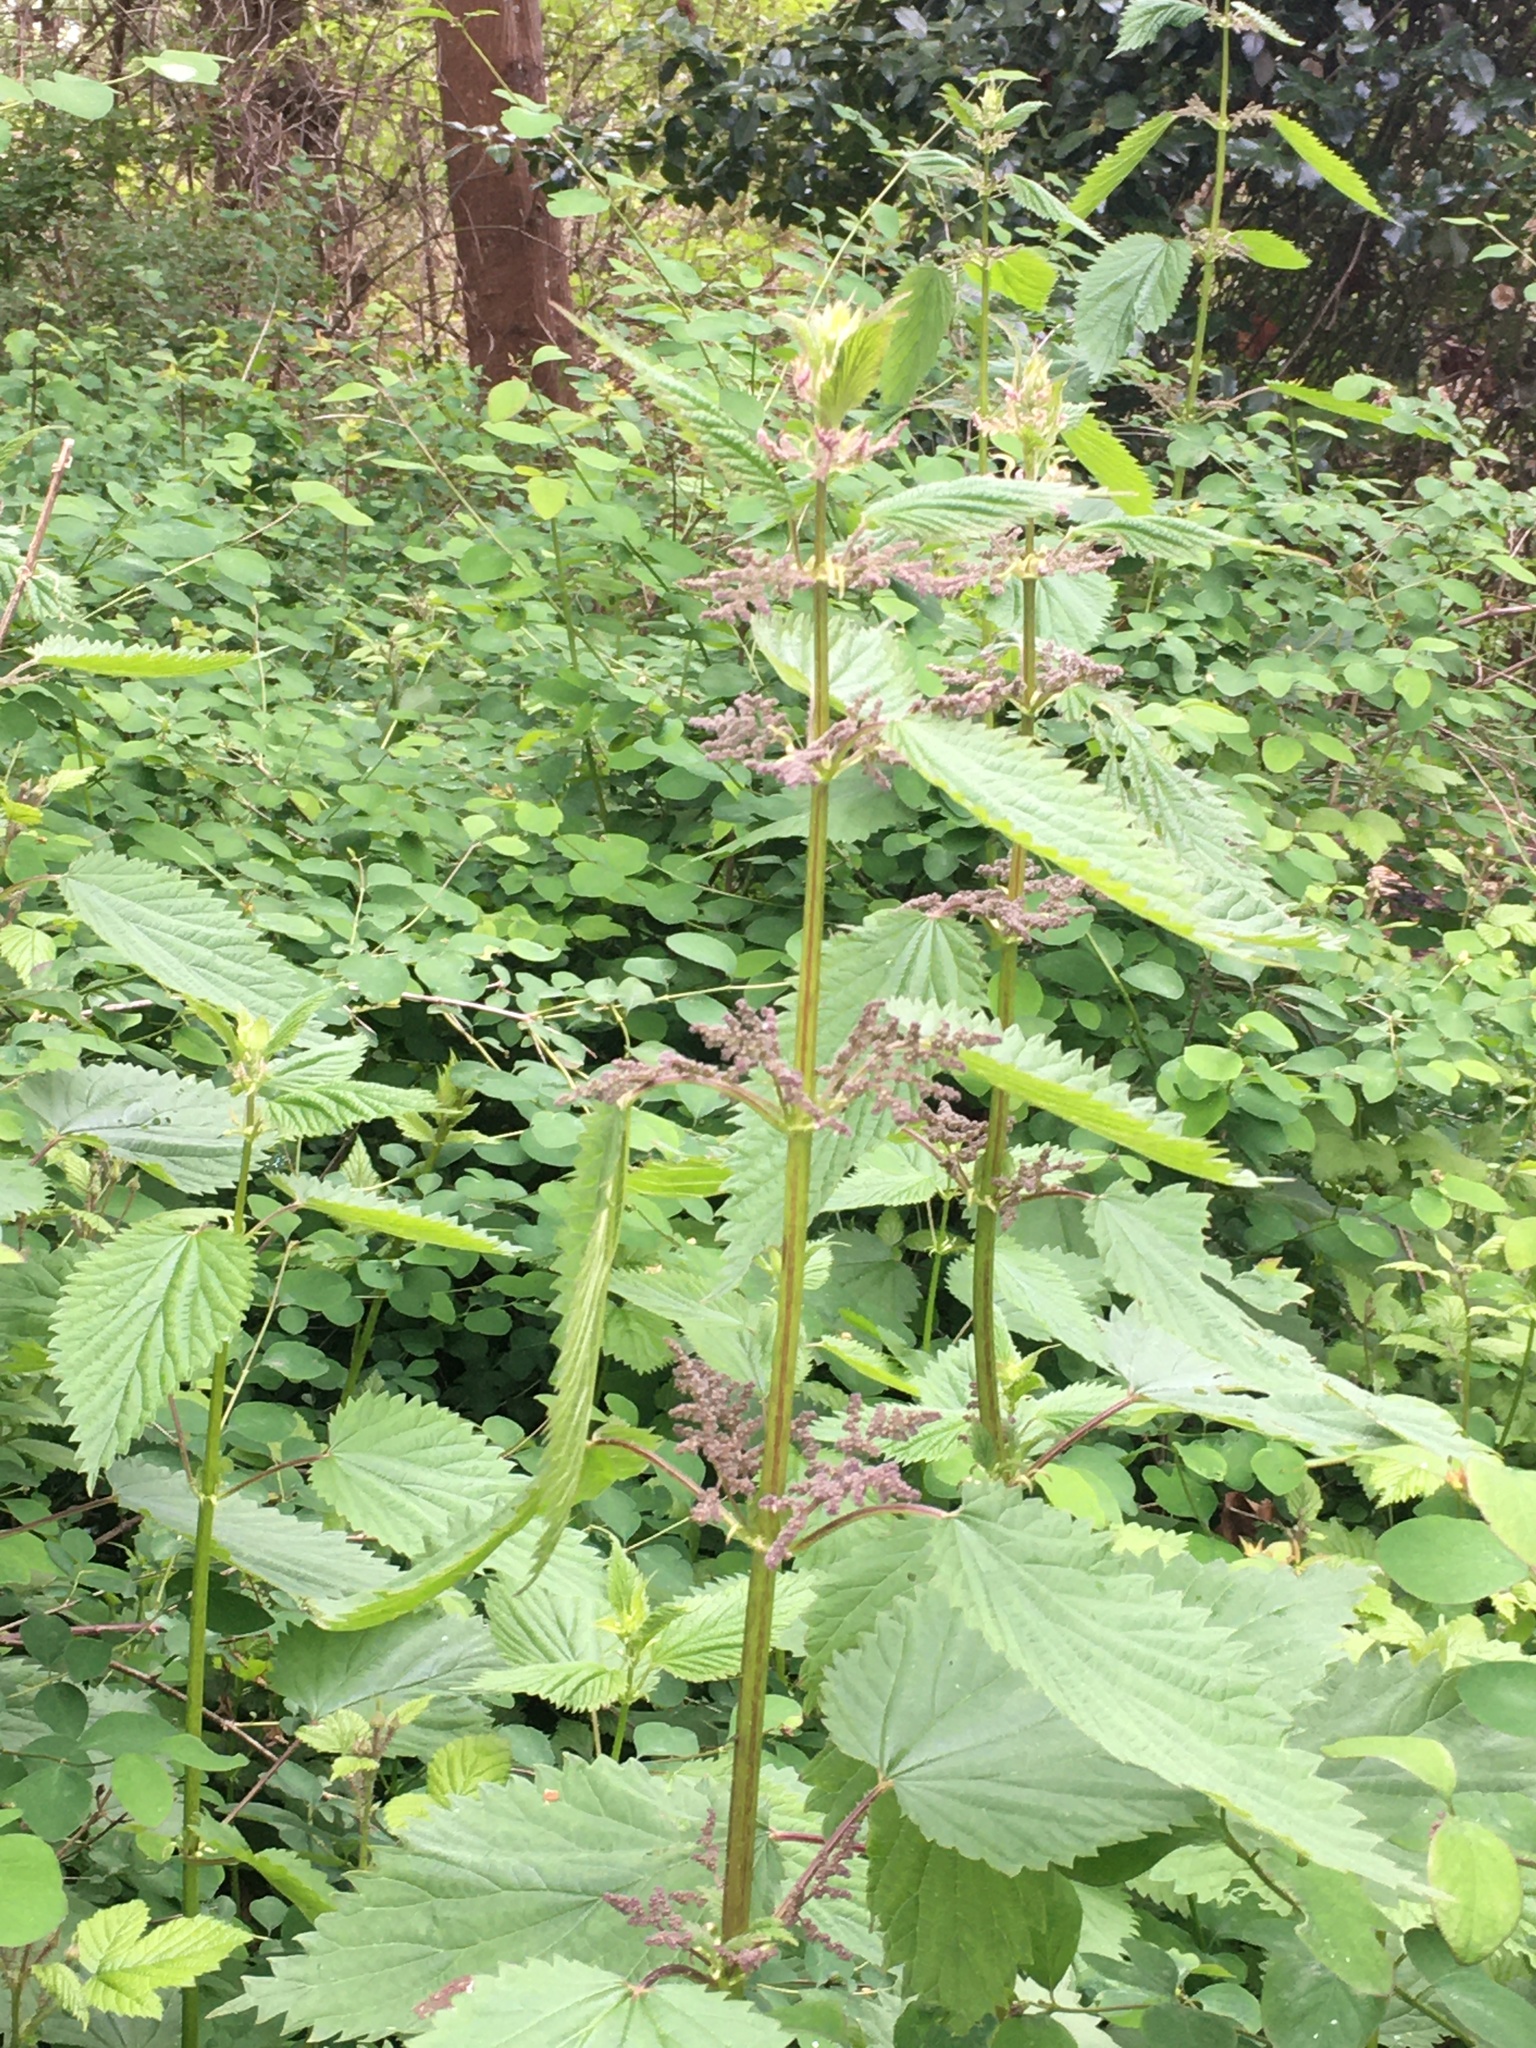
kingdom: Plantae
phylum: Tracheophyta
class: Magnoliopsida
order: Rosales
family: Urticaceae
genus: Urtica
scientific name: Urtica dioica
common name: Common nettle
